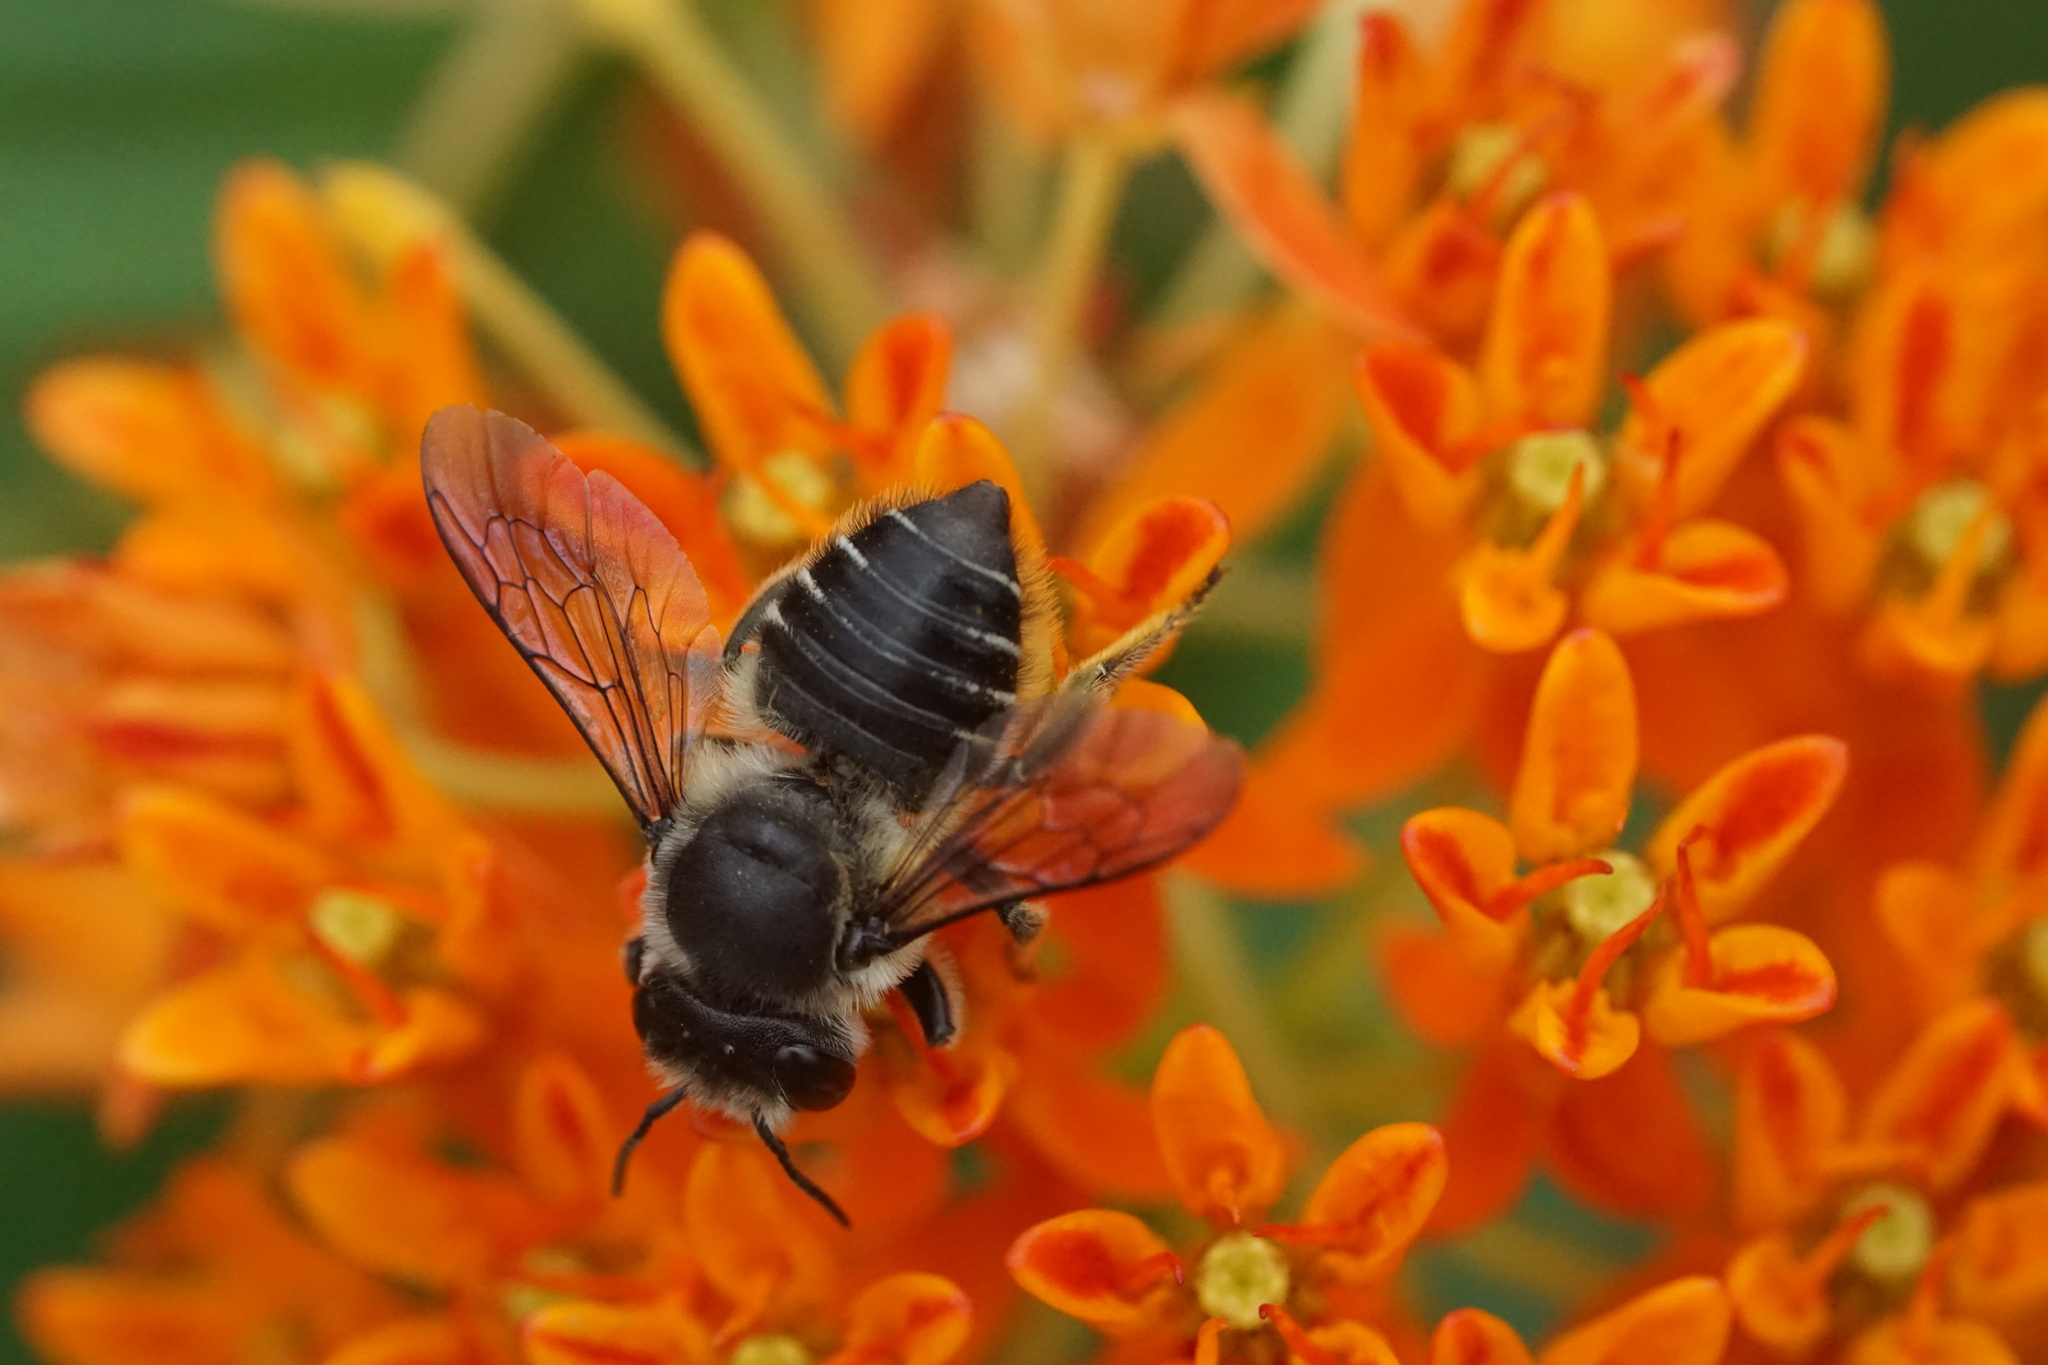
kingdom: Animalia
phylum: Arthropoda
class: Insecta
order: Hymenoptera
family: Megachilidae
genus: Megachile
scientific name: Megachile mendica
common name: Flat-tailed leafcutter
